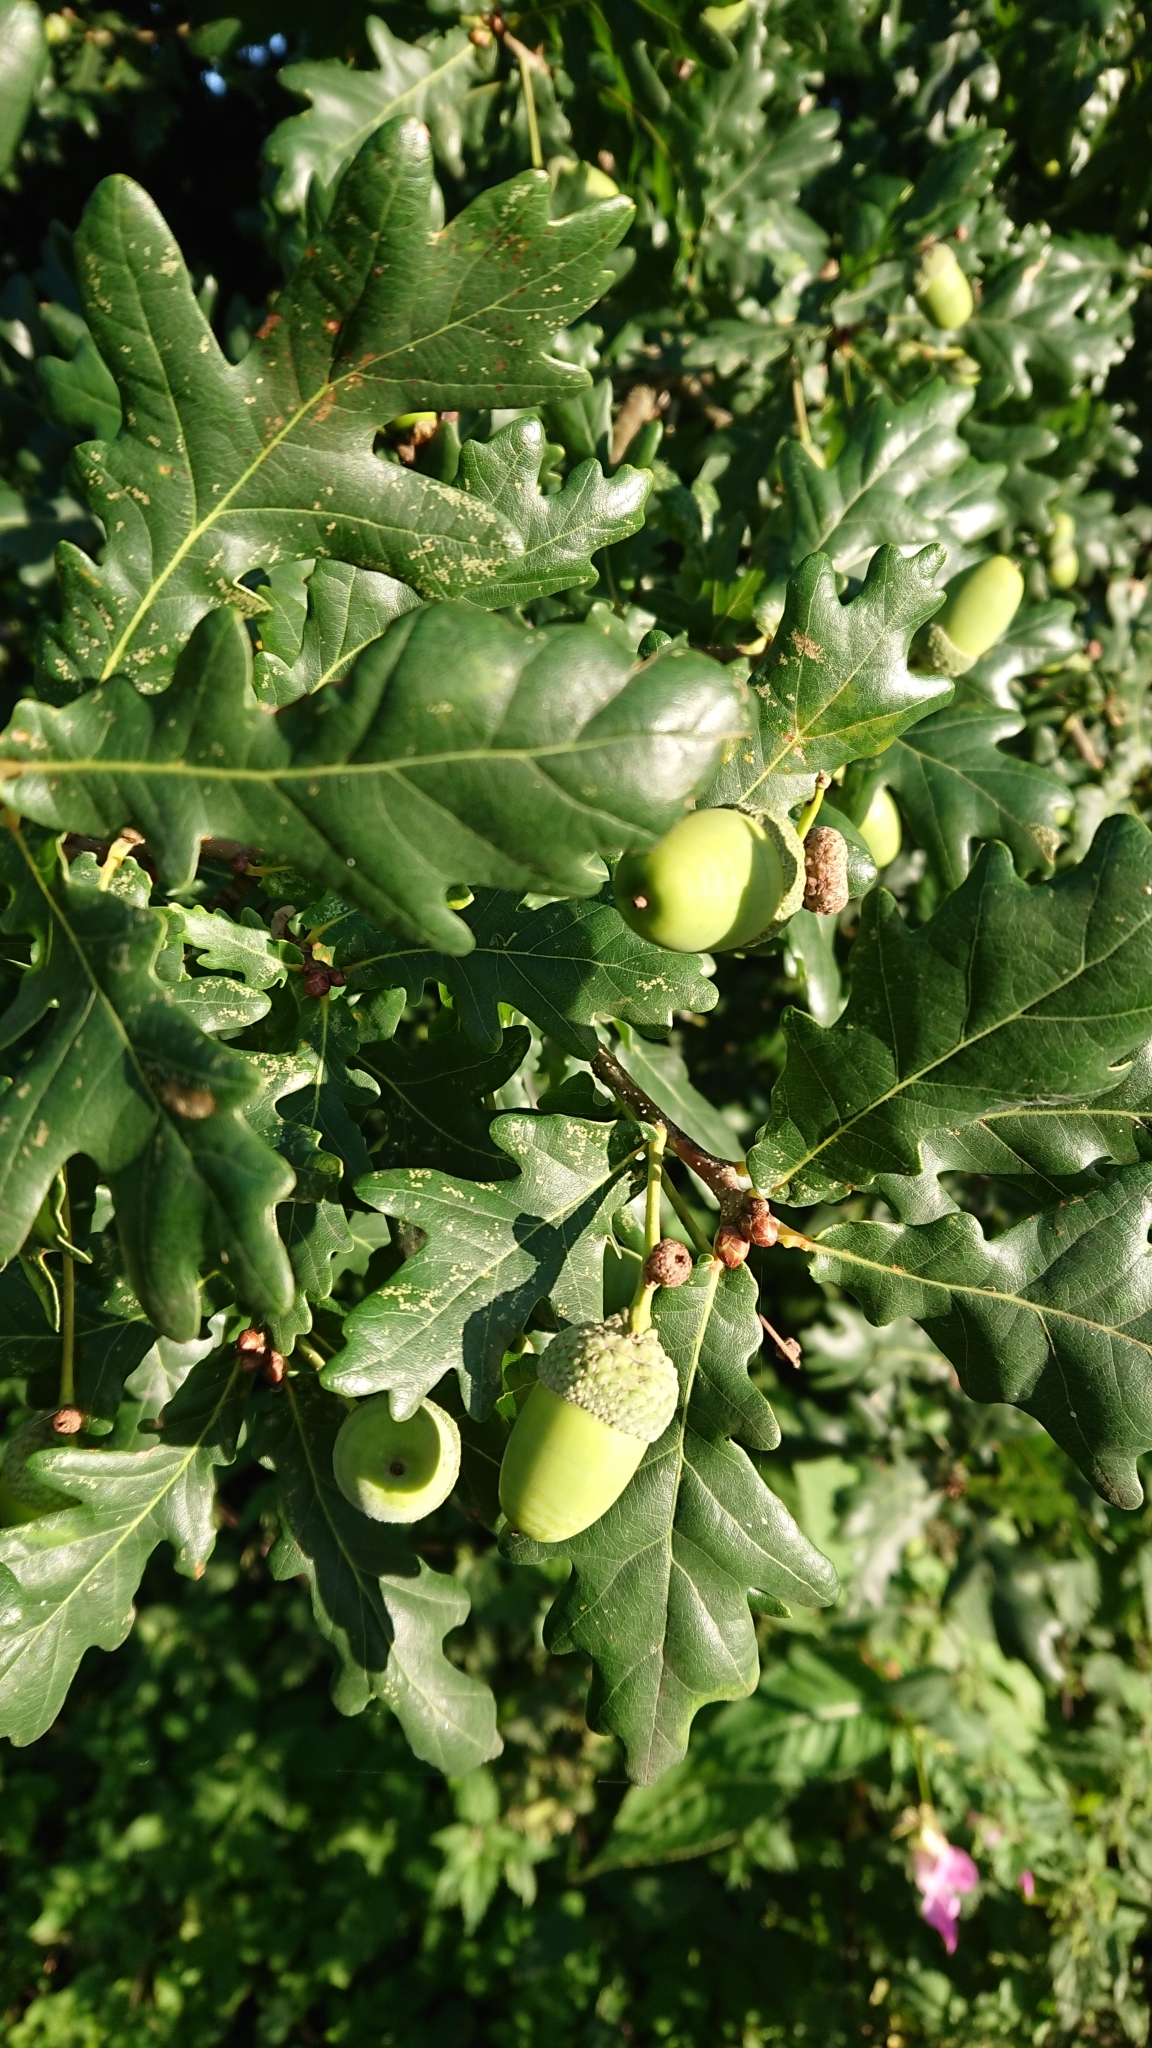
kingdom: Plantae
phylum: Tracheophyta
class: Magnoliopsida
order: Fagales
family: Fagaceae
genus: Quercus
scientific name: Quercus robur
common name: Pedunculate oak
